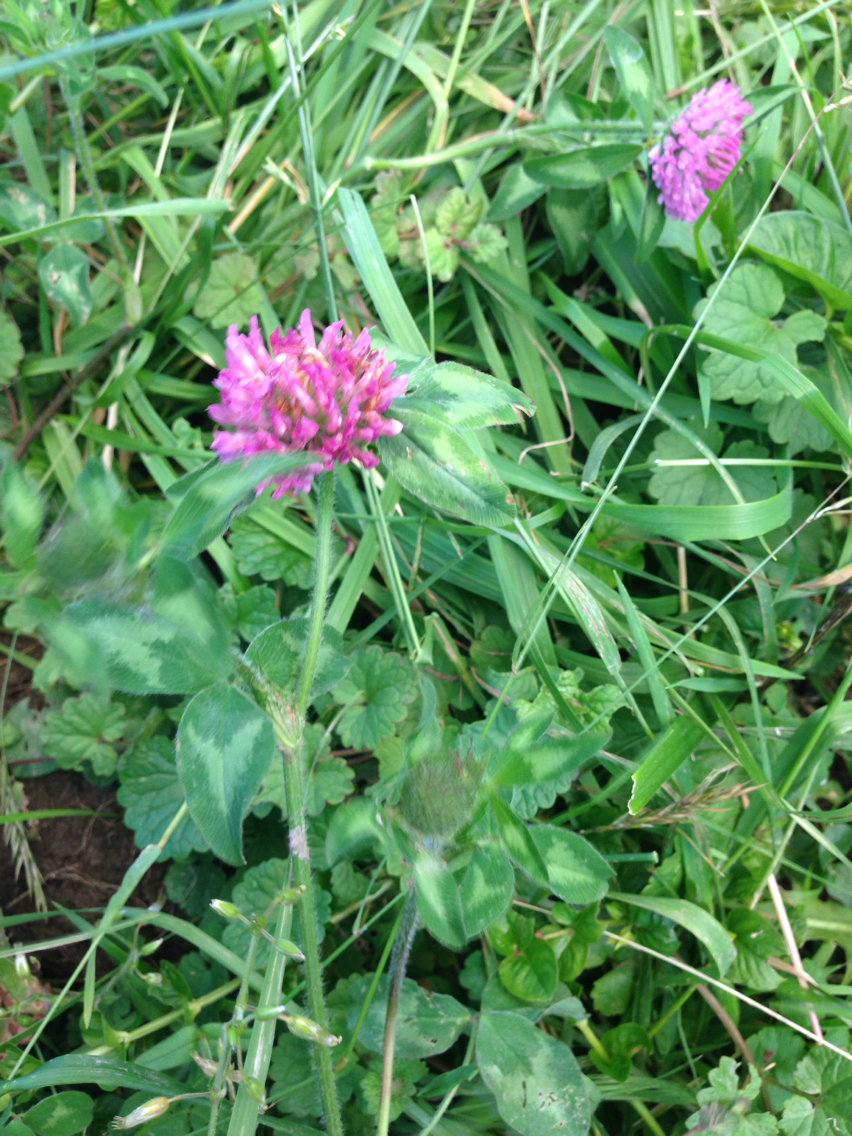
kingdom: Plantae
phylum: Tracheophyta
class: Magnoliopsida
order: Fabales
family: Fabaceae
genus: Trifolium
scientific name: Trifolium pratense
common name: Red clover
